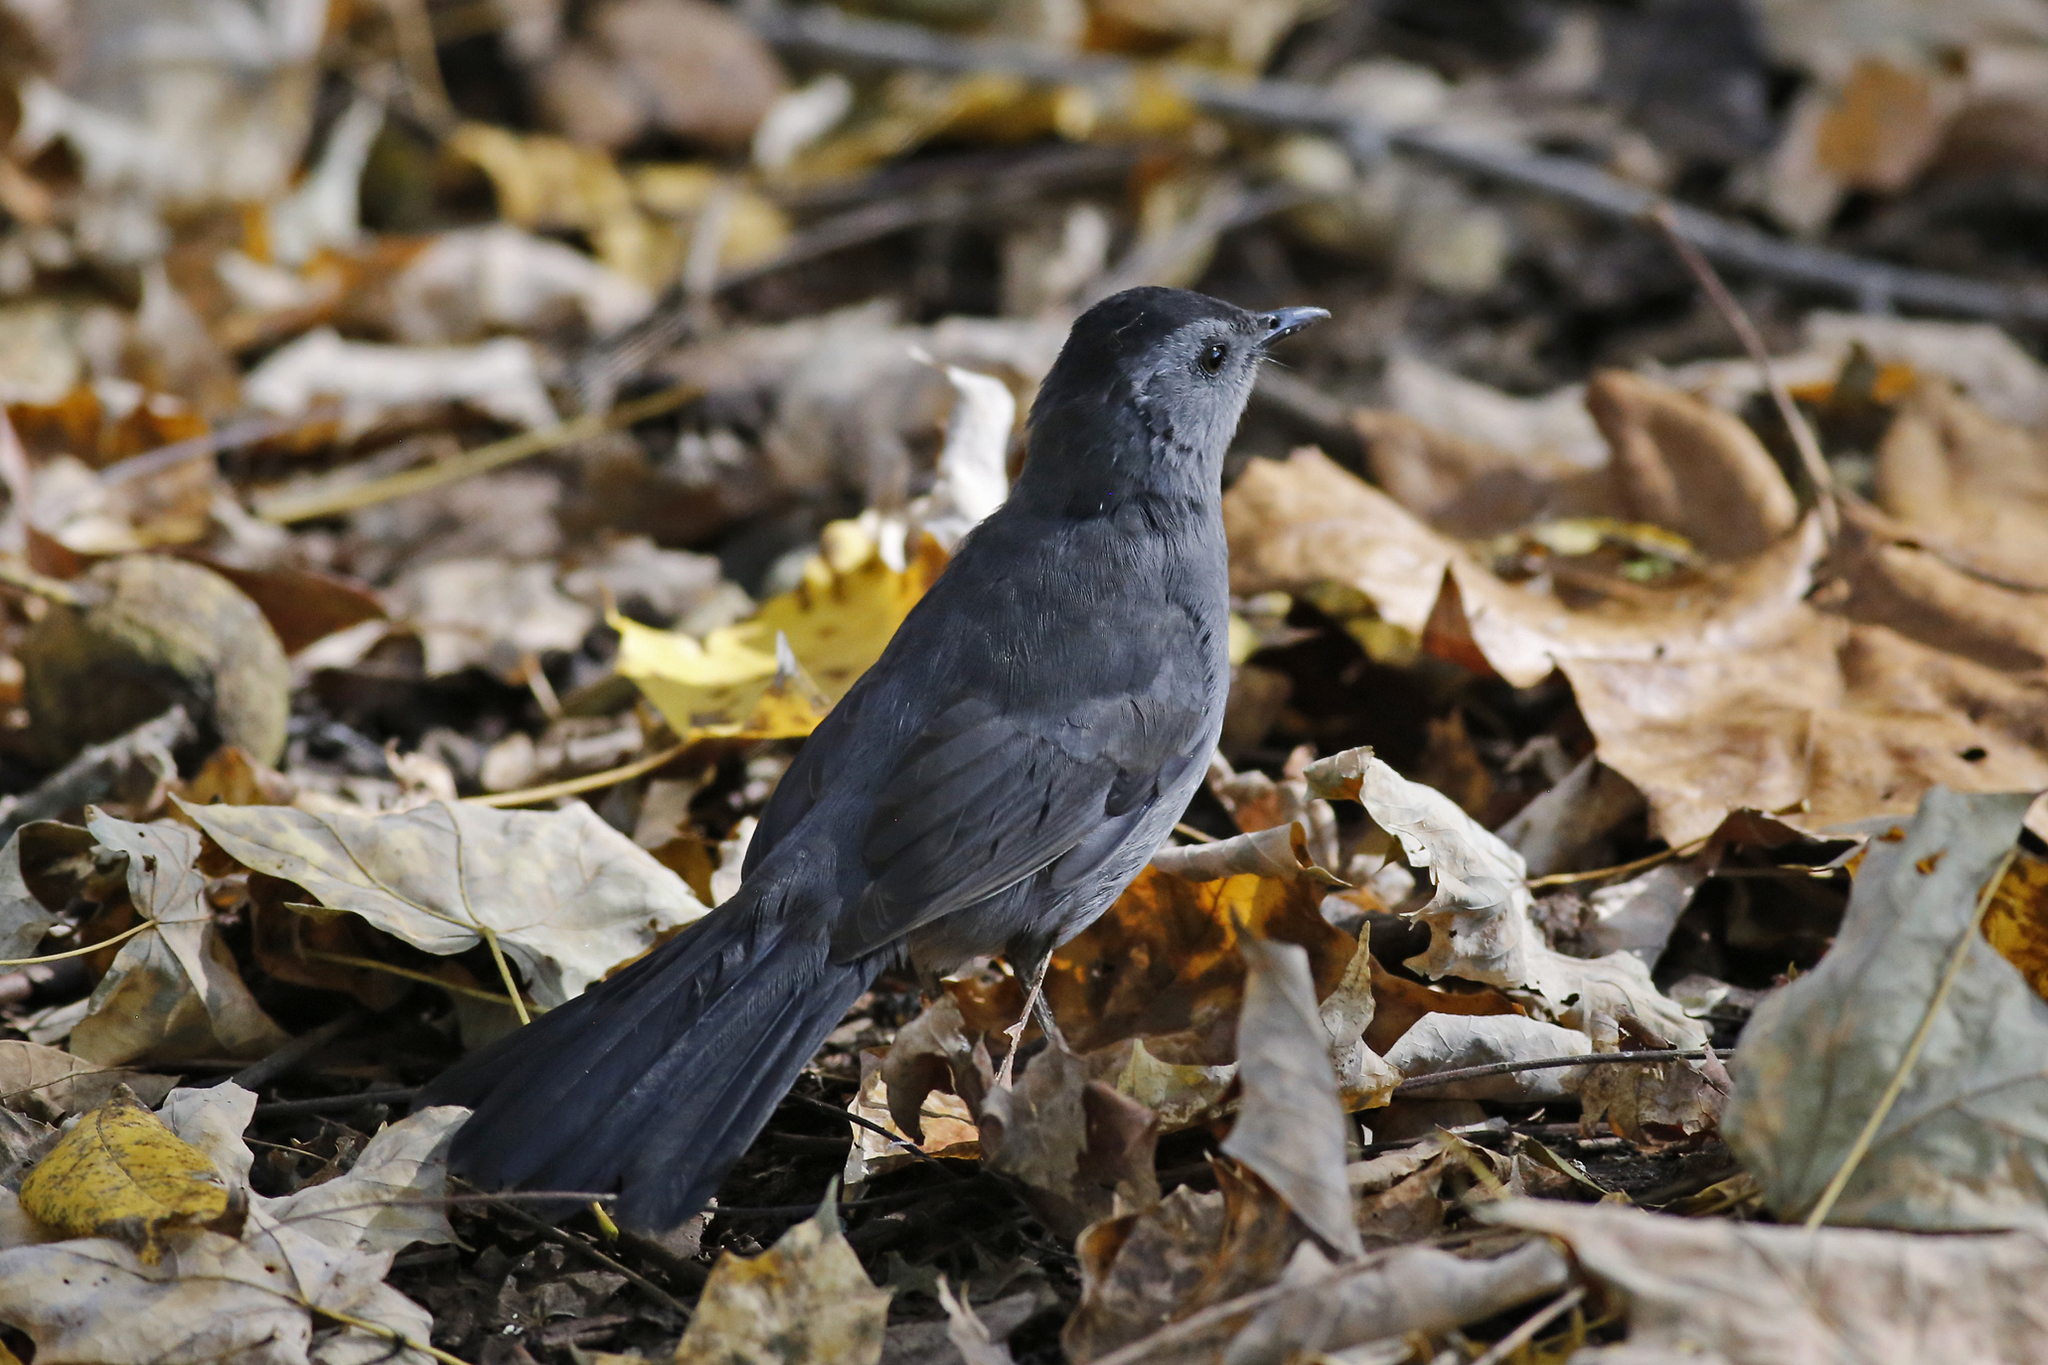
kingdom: Animalia
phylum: Chordata
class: Aves
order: Passeriformes
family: Mimidae
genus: Dumetella
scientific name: Dumetella carolinensis
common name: Gray catbird
